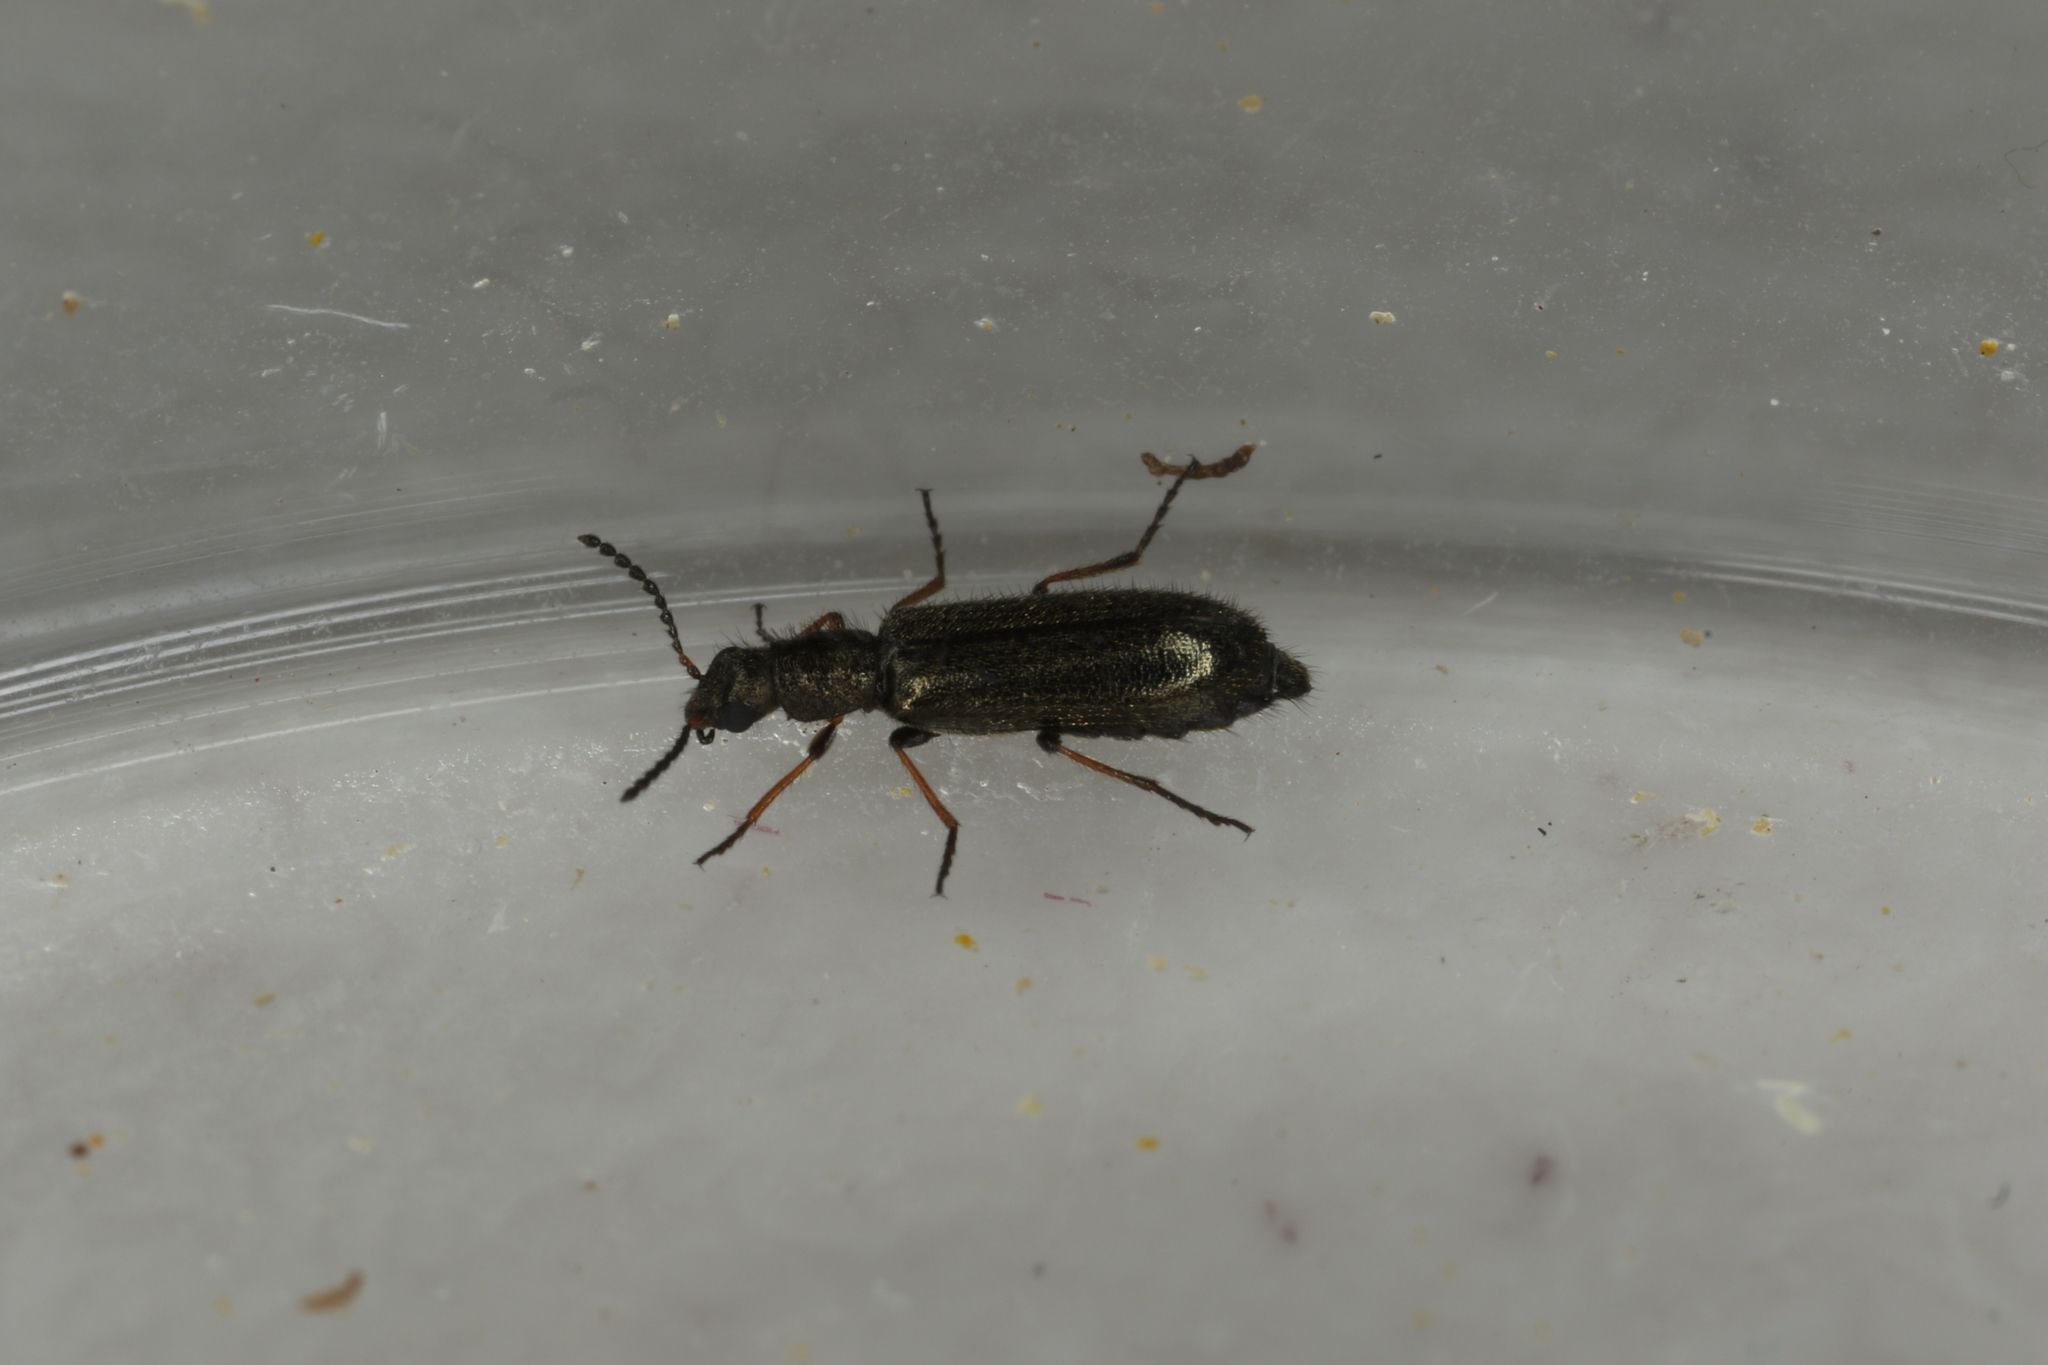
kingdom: Animalia
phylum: Arthropoda
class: Insecta
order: Coleoptera
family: Melyridae
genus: Dasytes
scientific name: Dasytes plumbeus
